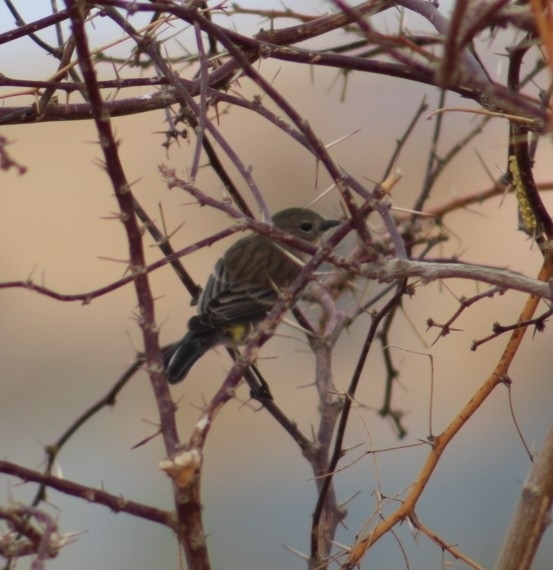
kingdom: Animalia
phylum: Chordata
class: Aves
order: Passeriformes
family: Parulidae
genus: Setophaga
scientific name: Setophaga coronata
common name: Myrtle warbler
